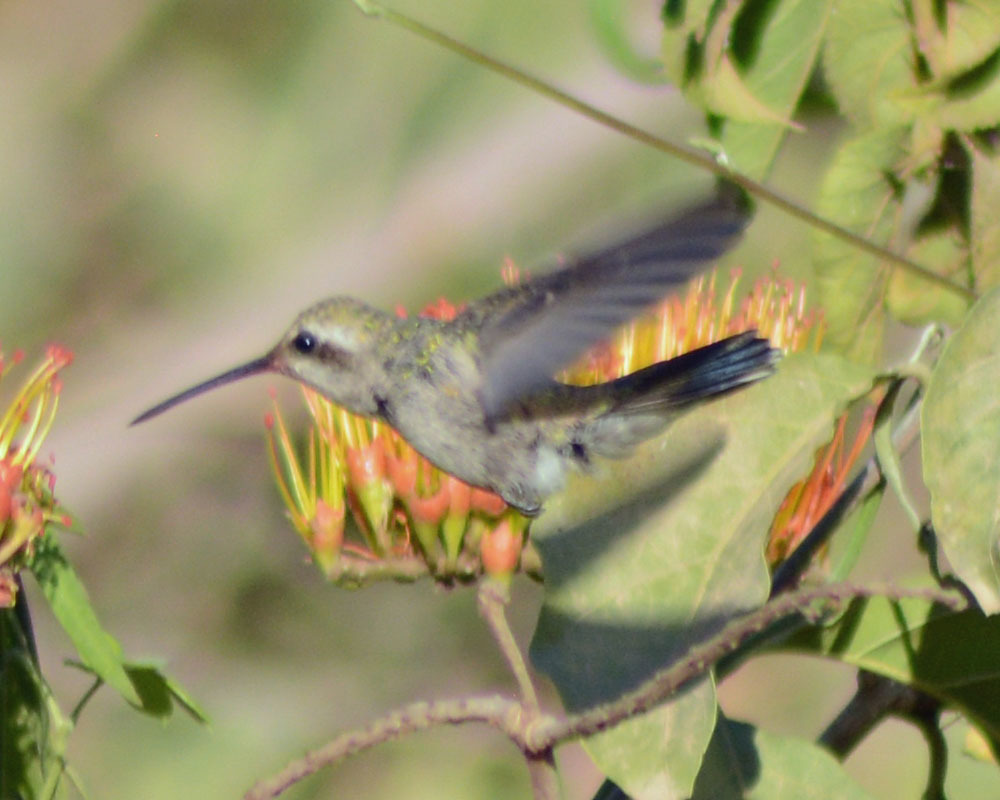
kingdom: Animalia
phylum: Chordata
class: Aves
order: Apodiformes
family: Trochilidae
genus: Cynanthus
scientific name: Cynanthus latirostris
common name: Broad-billed hummingbird
